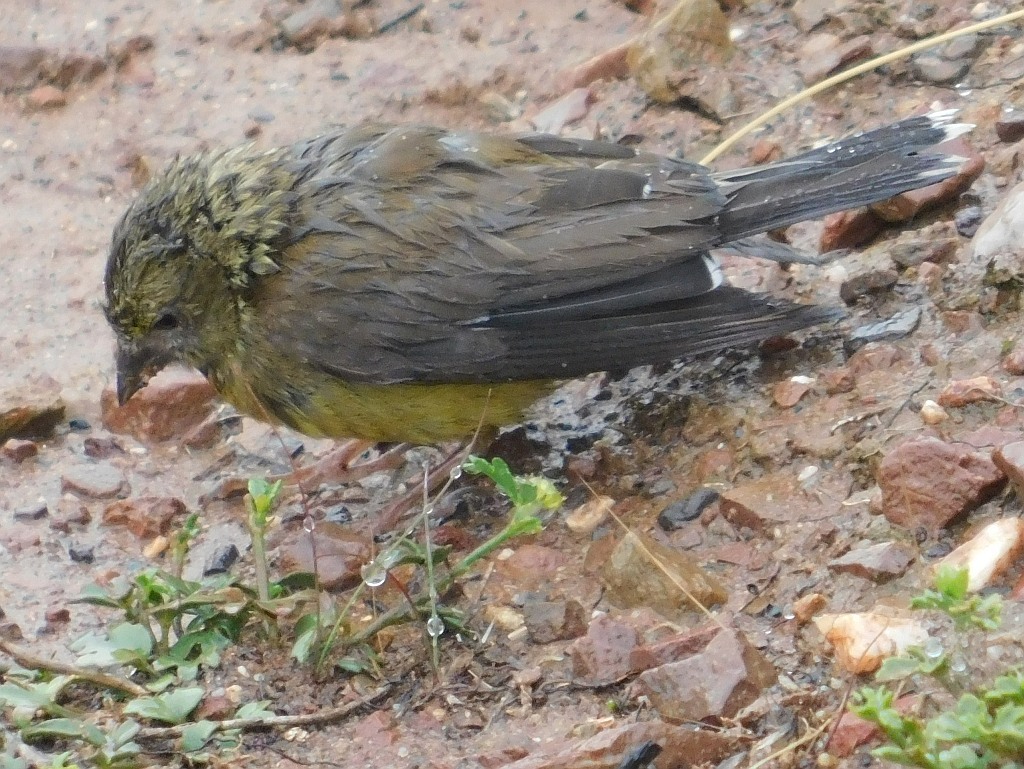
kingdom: Animalia
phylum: Chordata
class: Aves
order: Passeriformes
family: Fringillidae
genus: Crithagra
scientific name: Crithagra totta
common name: Cape siskin
